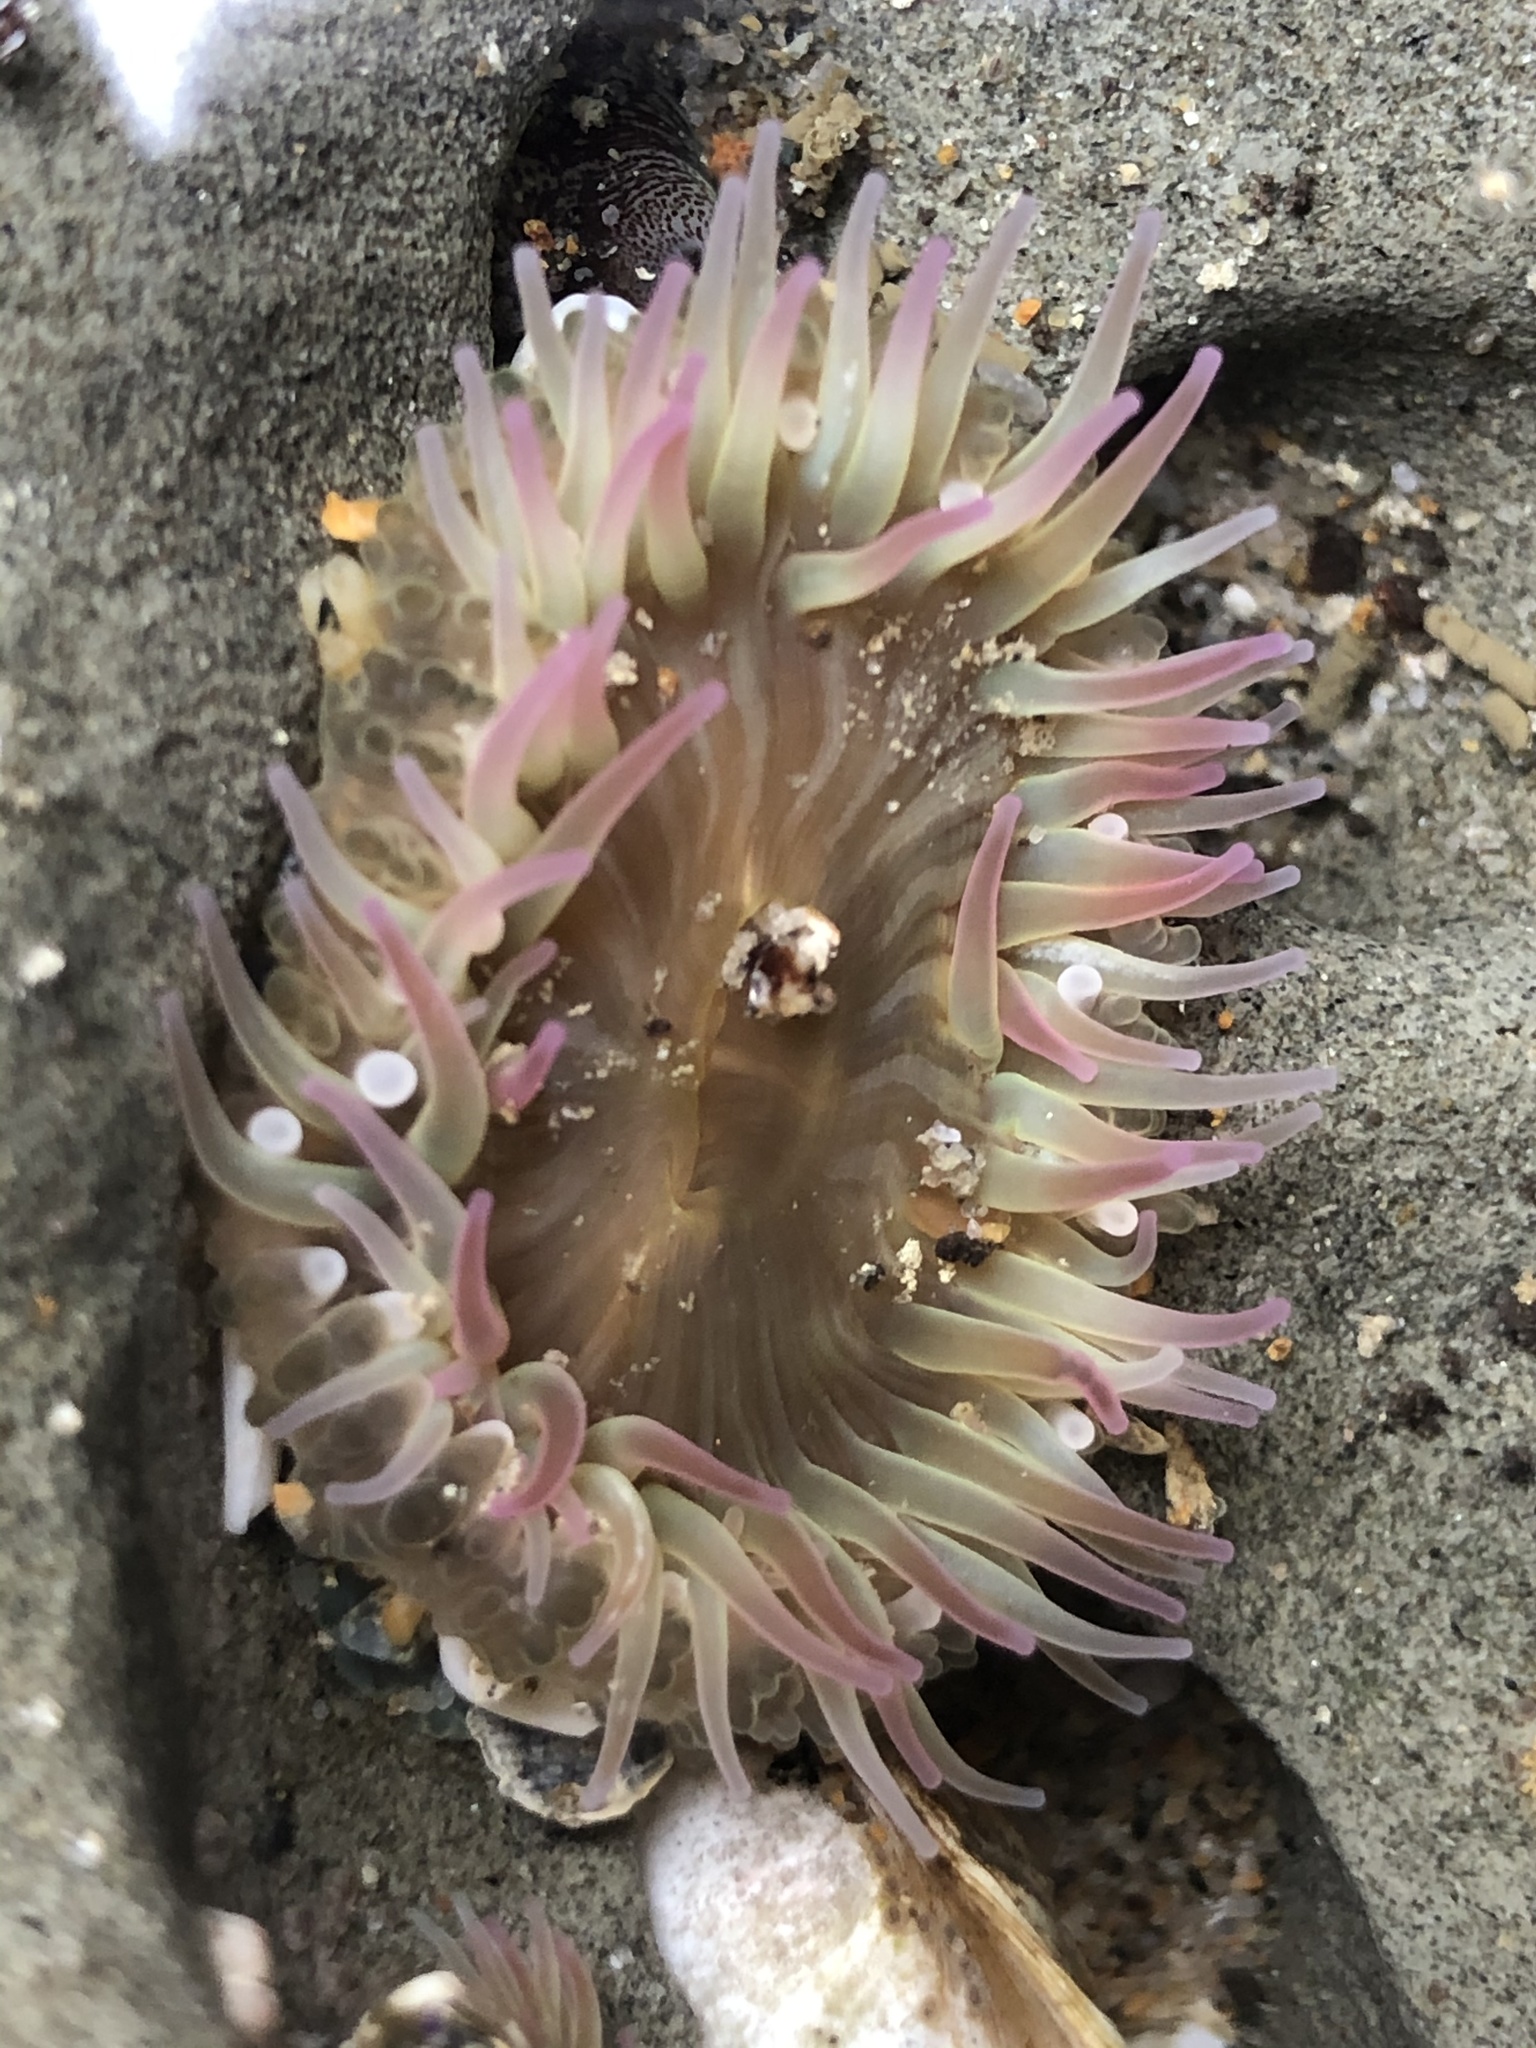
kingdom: Animalia
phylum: Cnidaria
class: Anthozoa
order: Actiniaria
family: Actiniidae
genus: Anthopleura
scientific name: Anthopleura elegantissima
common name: Clonal anemone
